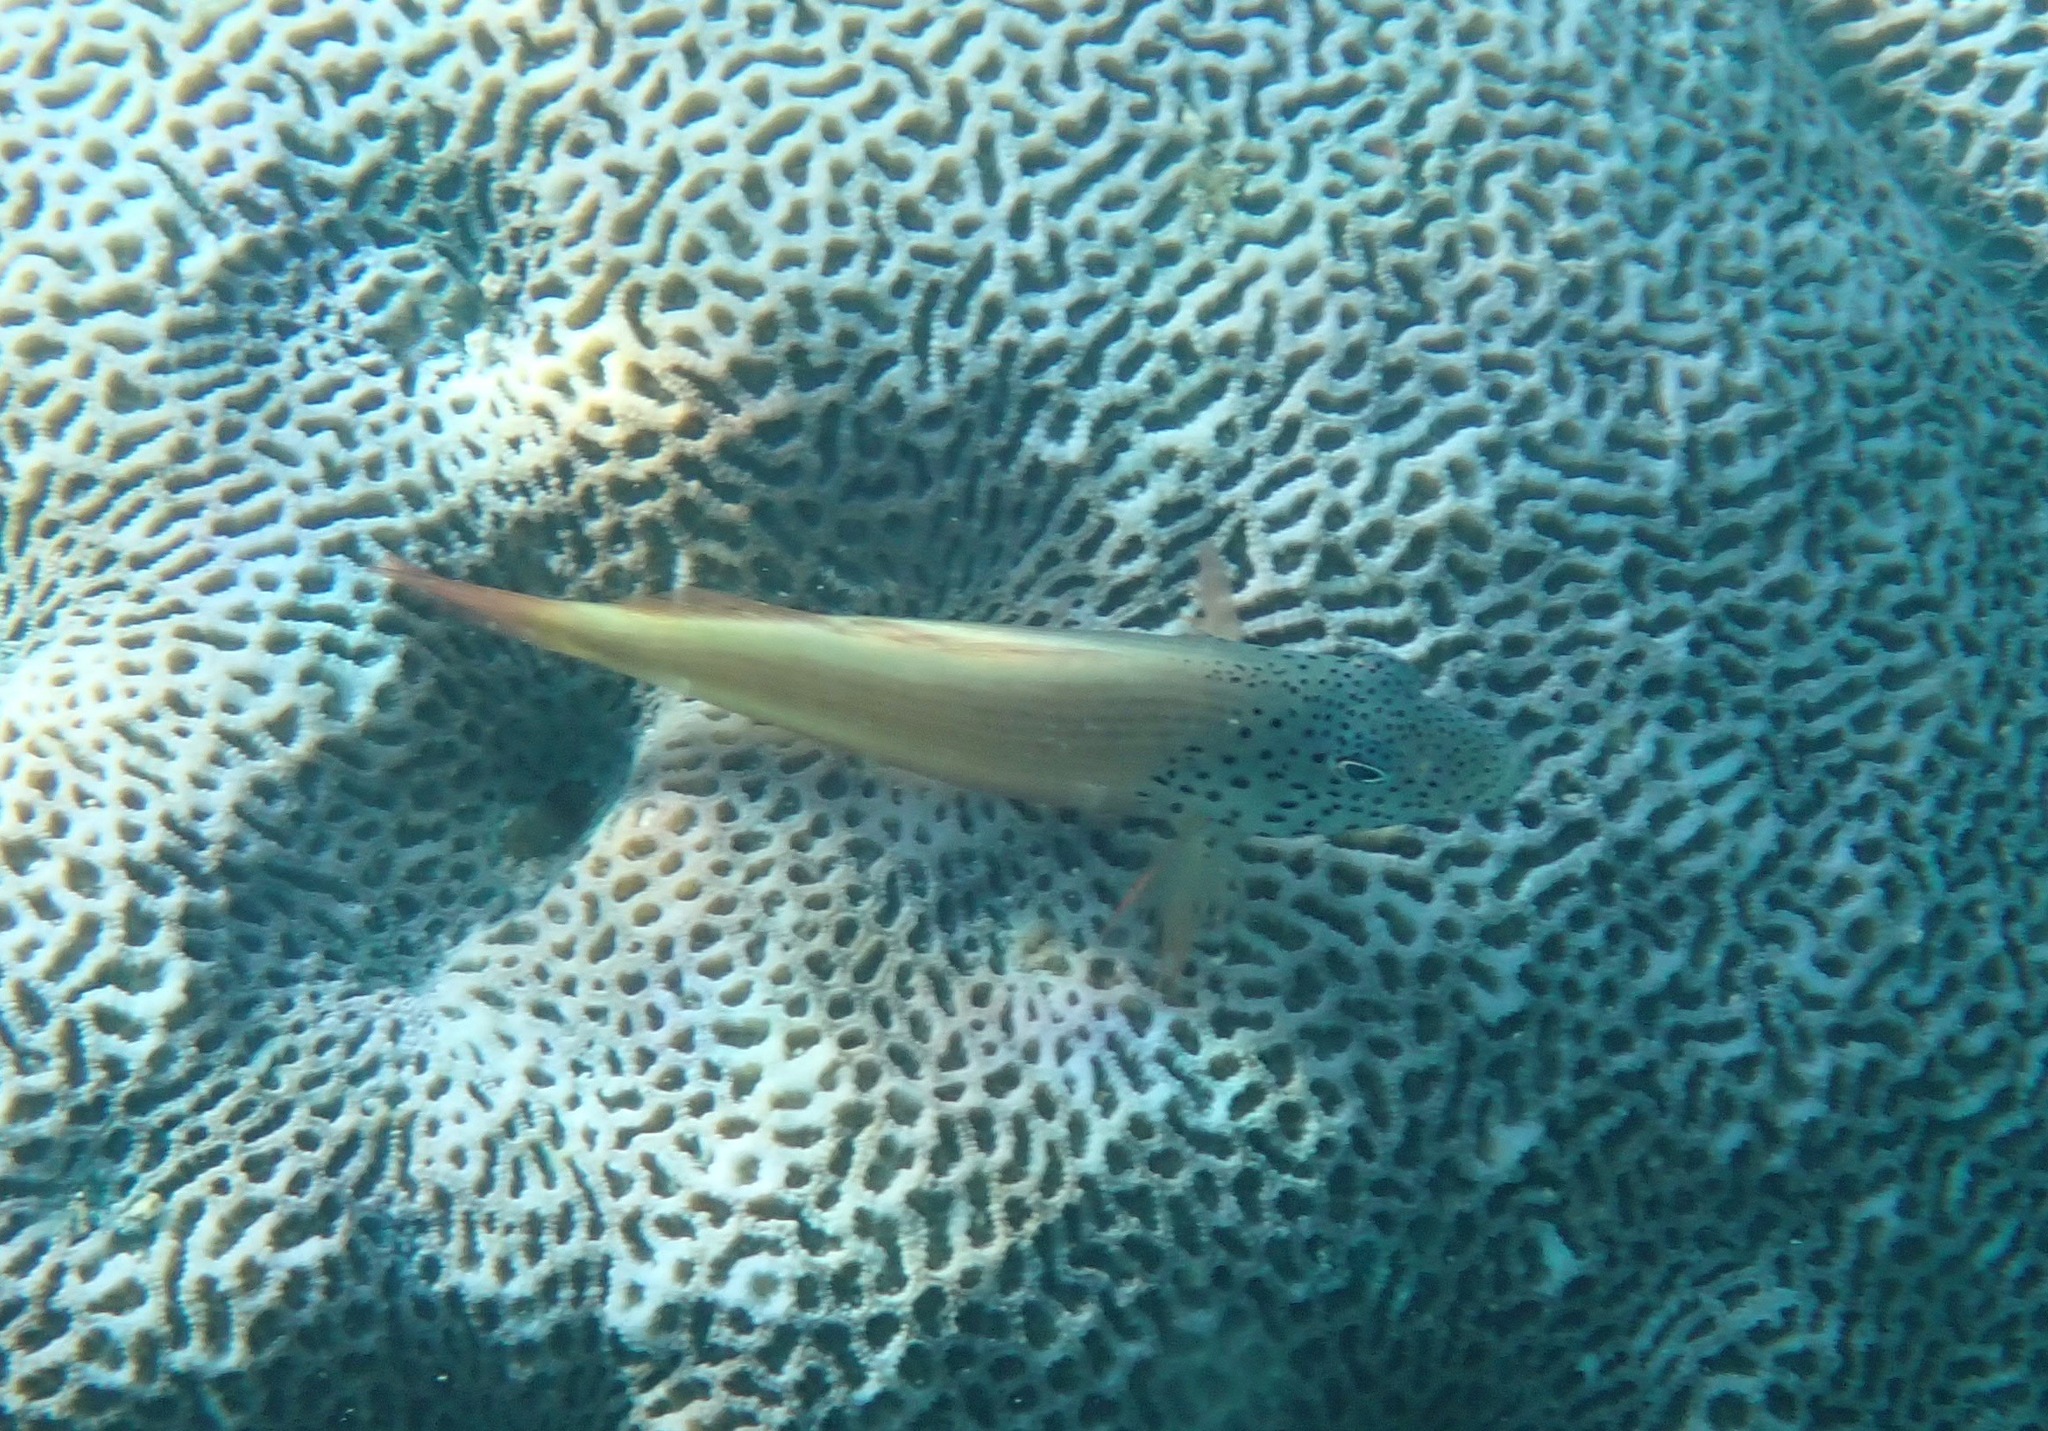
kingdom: Animalia
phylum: Chordata
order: Perciformes
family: Cirrhitidae
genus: Paracirrhites
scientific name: Paracirrhites forsteri
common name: Freckled hawkfish
